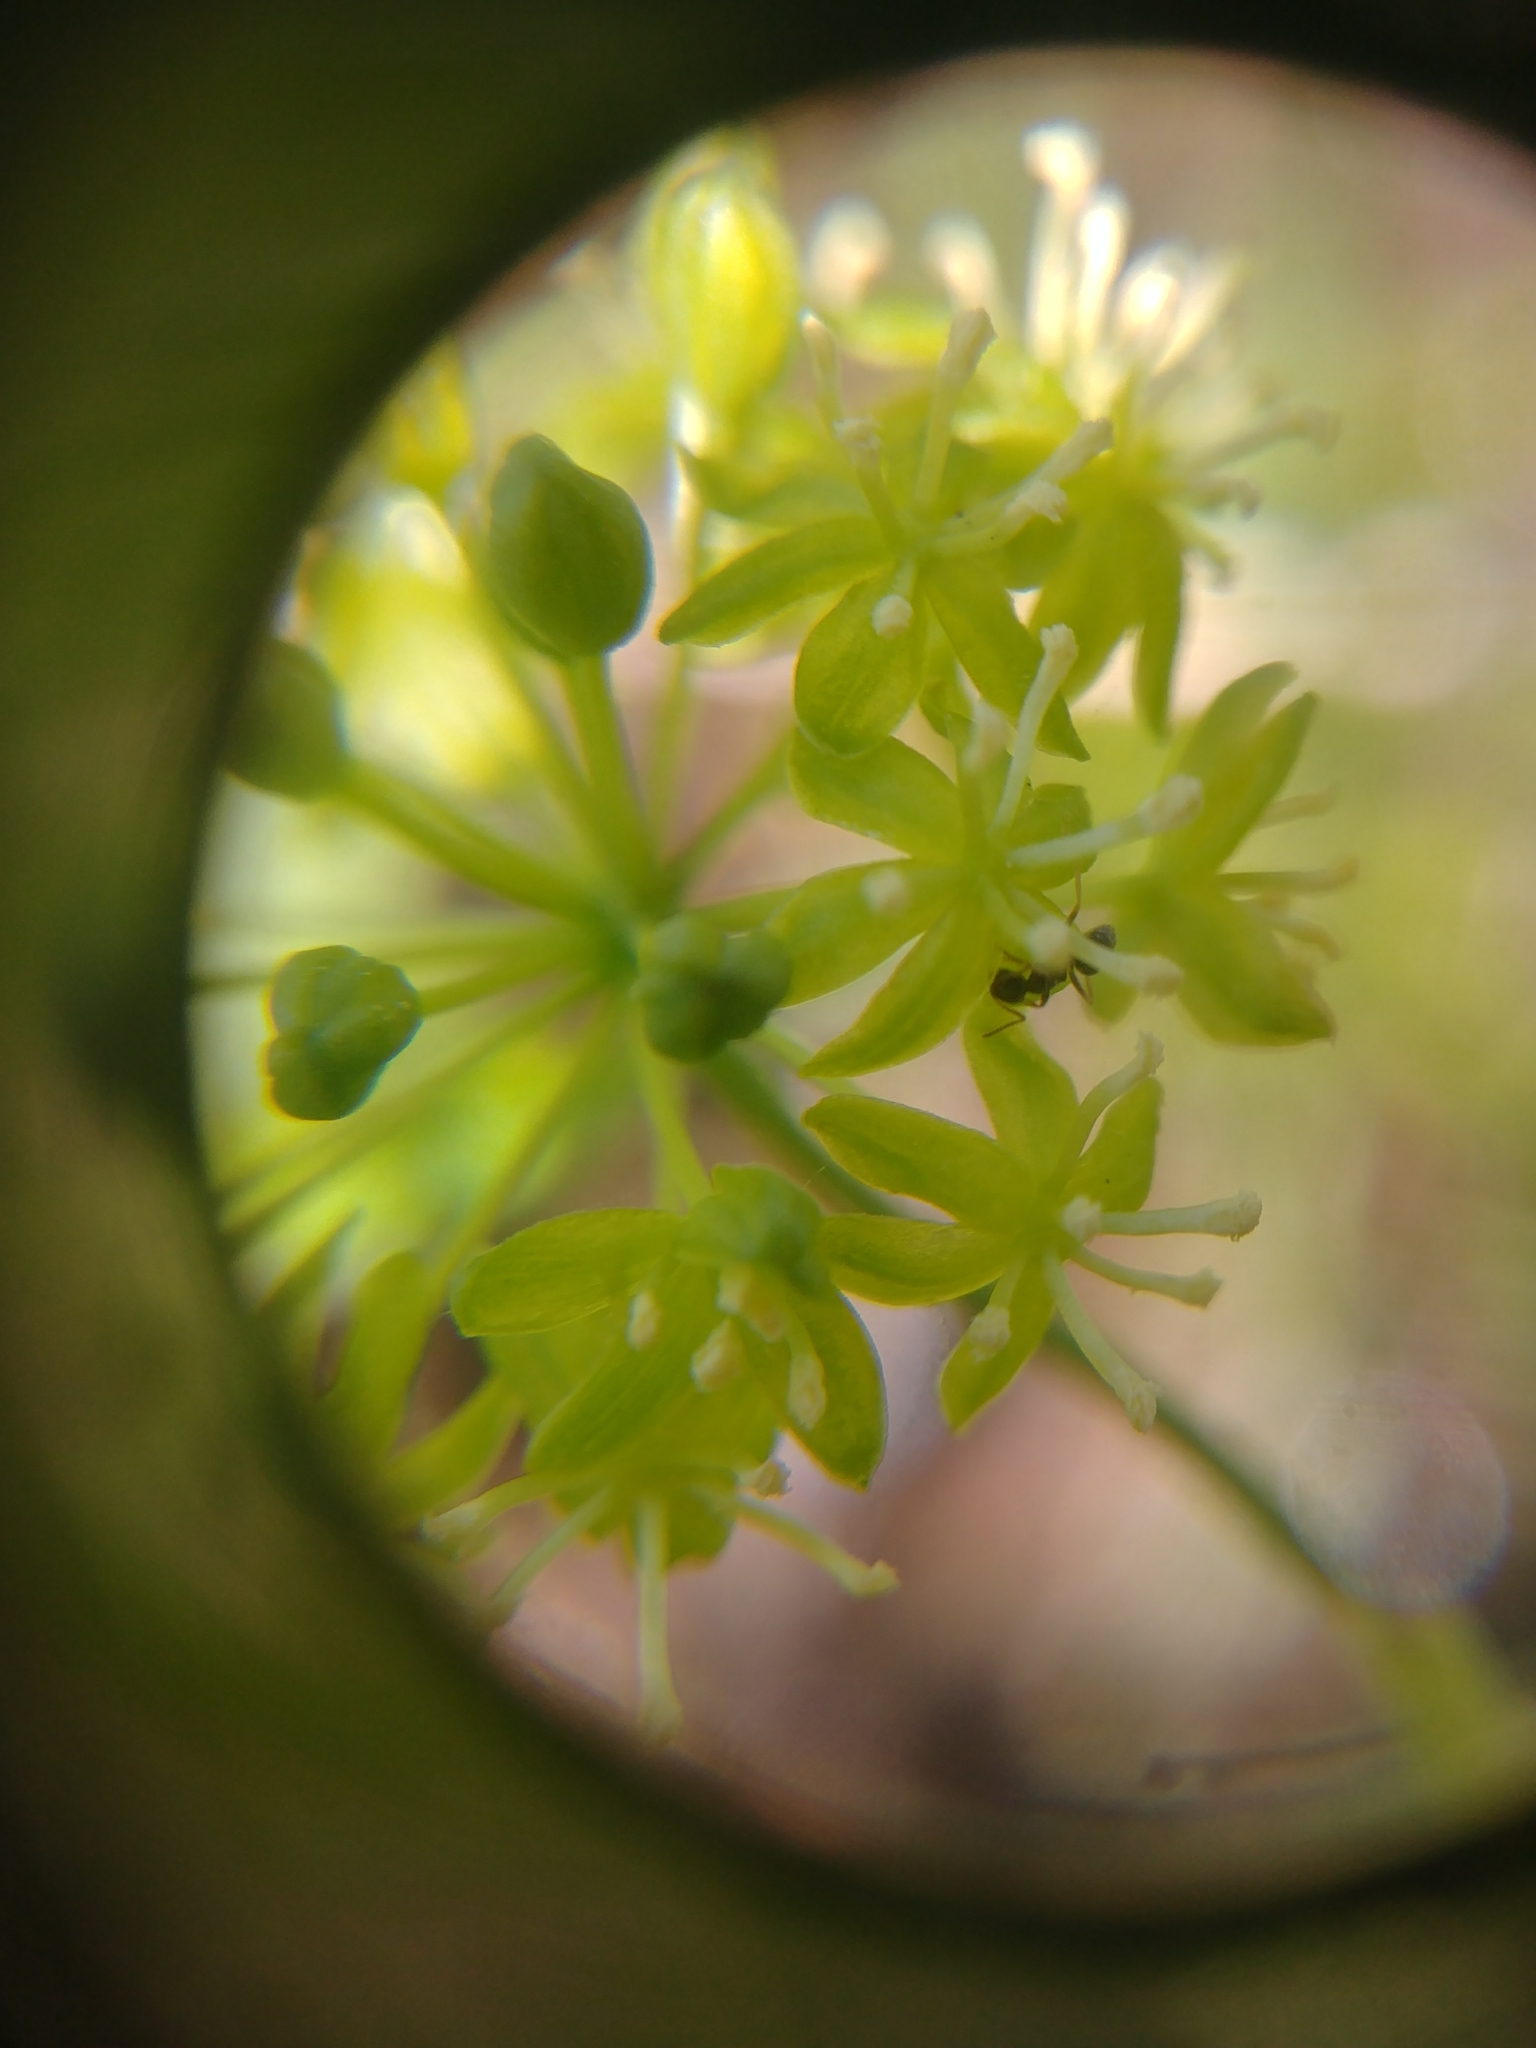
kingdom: Plantae
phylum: Tracheophyta
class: Liliopsida
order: Liliales
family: Smilacaceae
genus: Smilax
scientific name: Smilax illinoensis
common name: Illinois carrionflower
